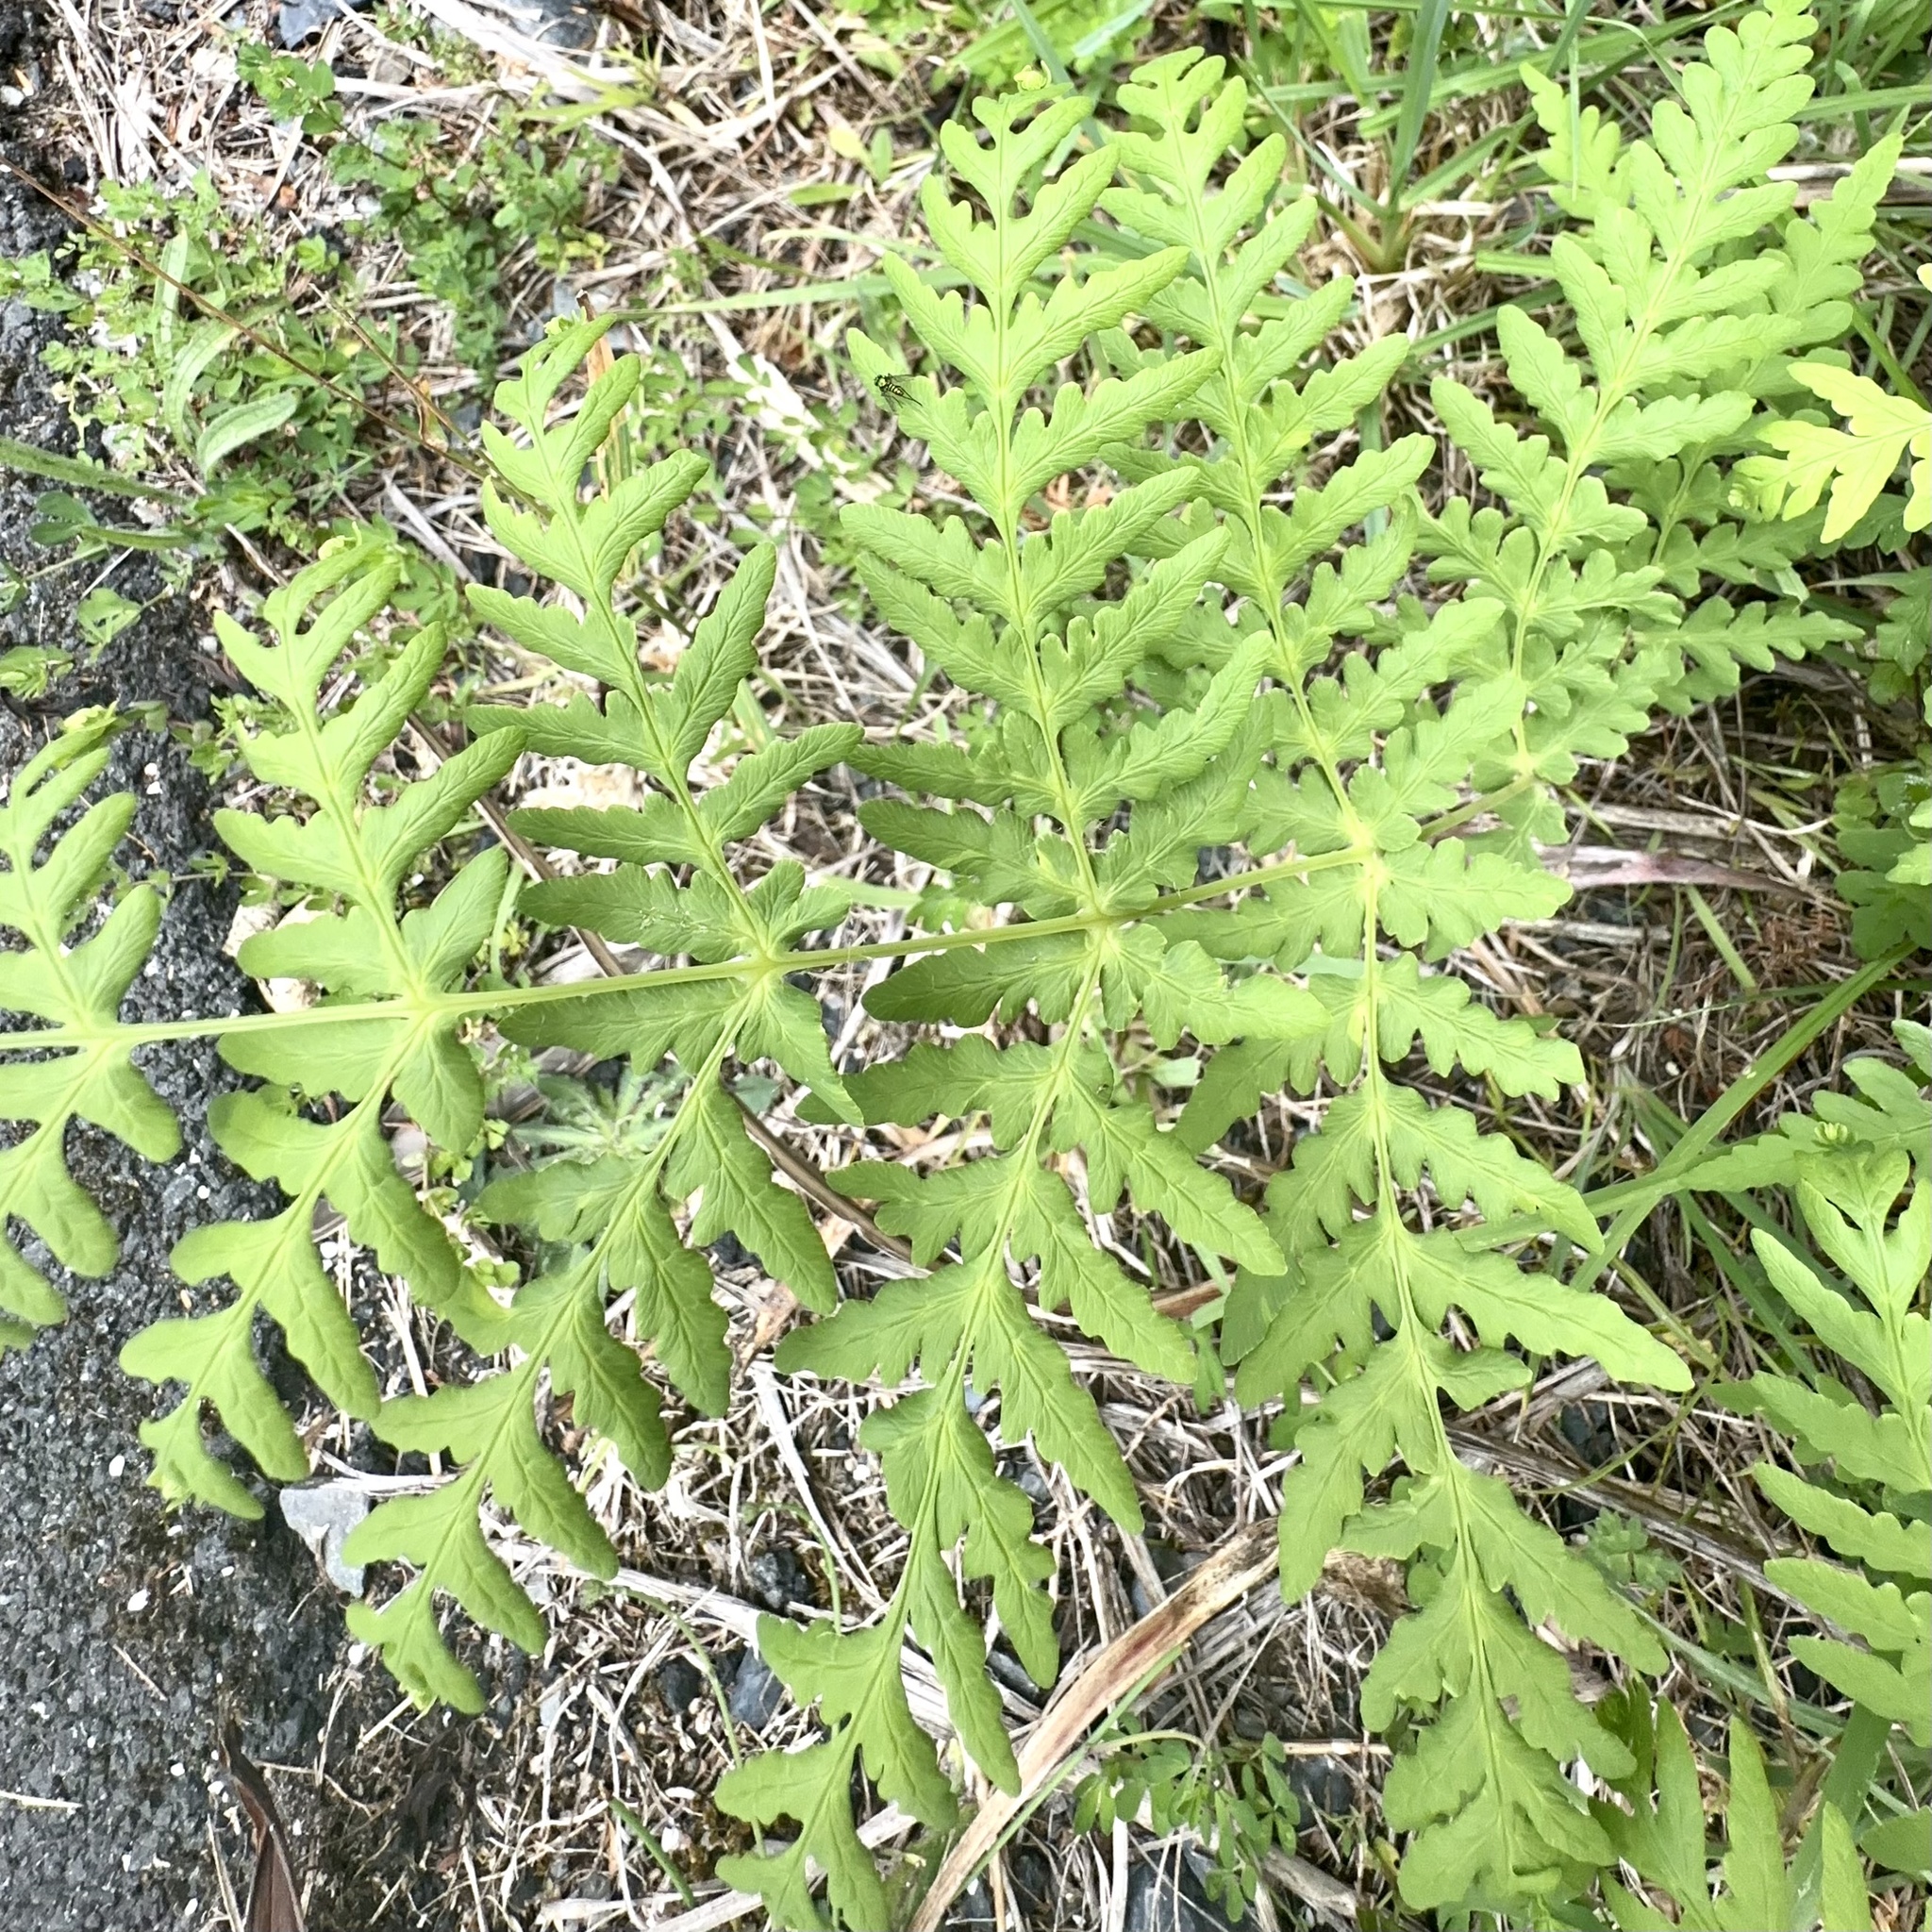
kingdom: Plantae
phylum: Tracheophyta
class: Polypodiopsida
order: Polypodiales
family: Dennstaedtiaceae
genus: Histiopteris
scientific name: Histiopteris incisa
